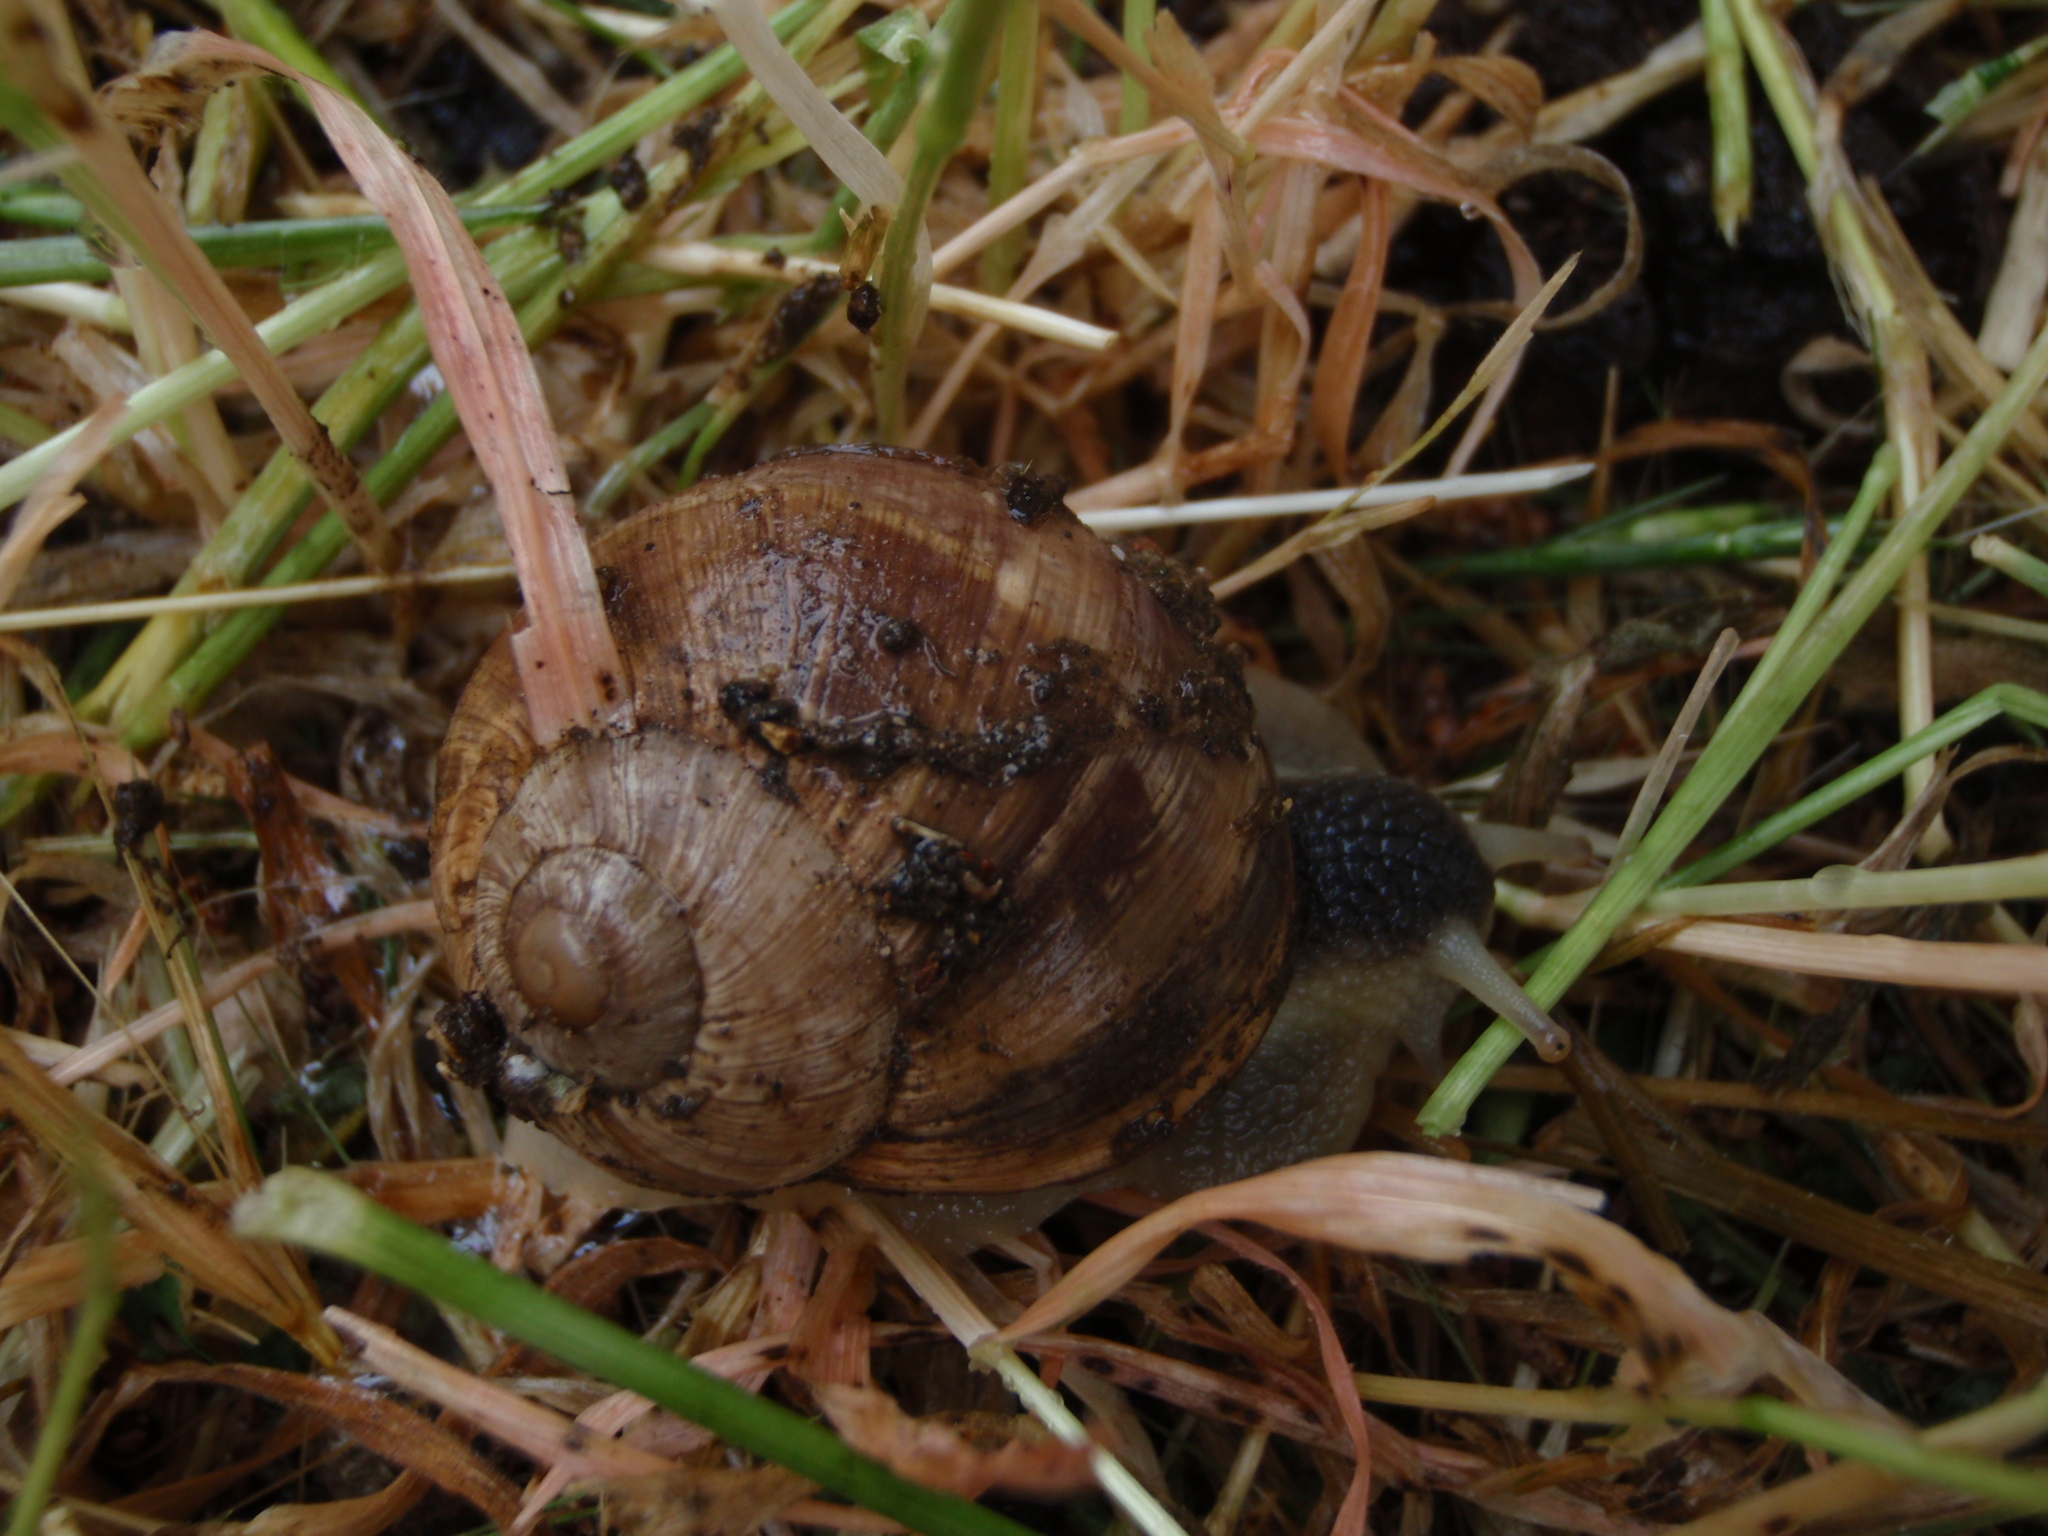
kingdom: Animalia
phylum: Mollusca
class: Gastropoda
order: Stylommatophora
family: Helicidae
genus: Helix
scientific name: Helix melanostoma
